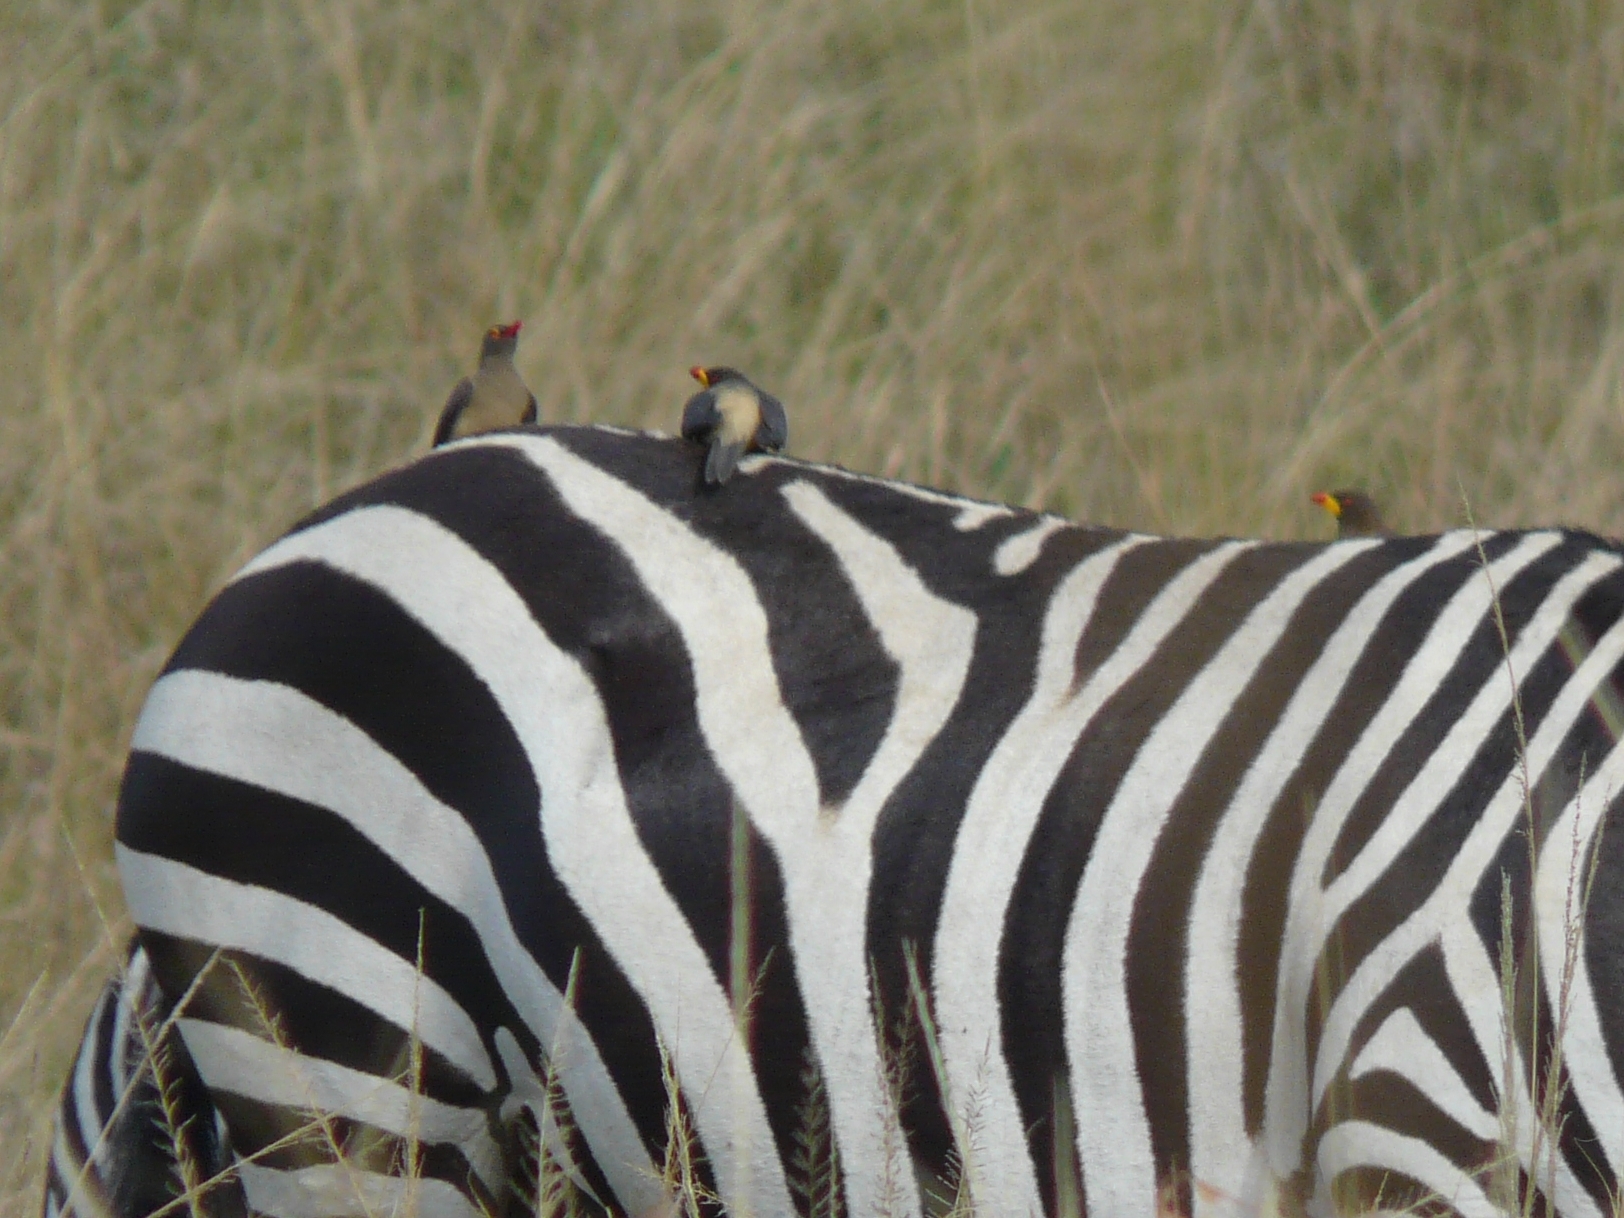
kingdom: Animalia
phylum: Chordata
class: Aves
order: Passeriformes
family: Buphagidae
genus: Buphagus
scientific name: Buphagus africanus
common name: Yellow-billed oxpecker
